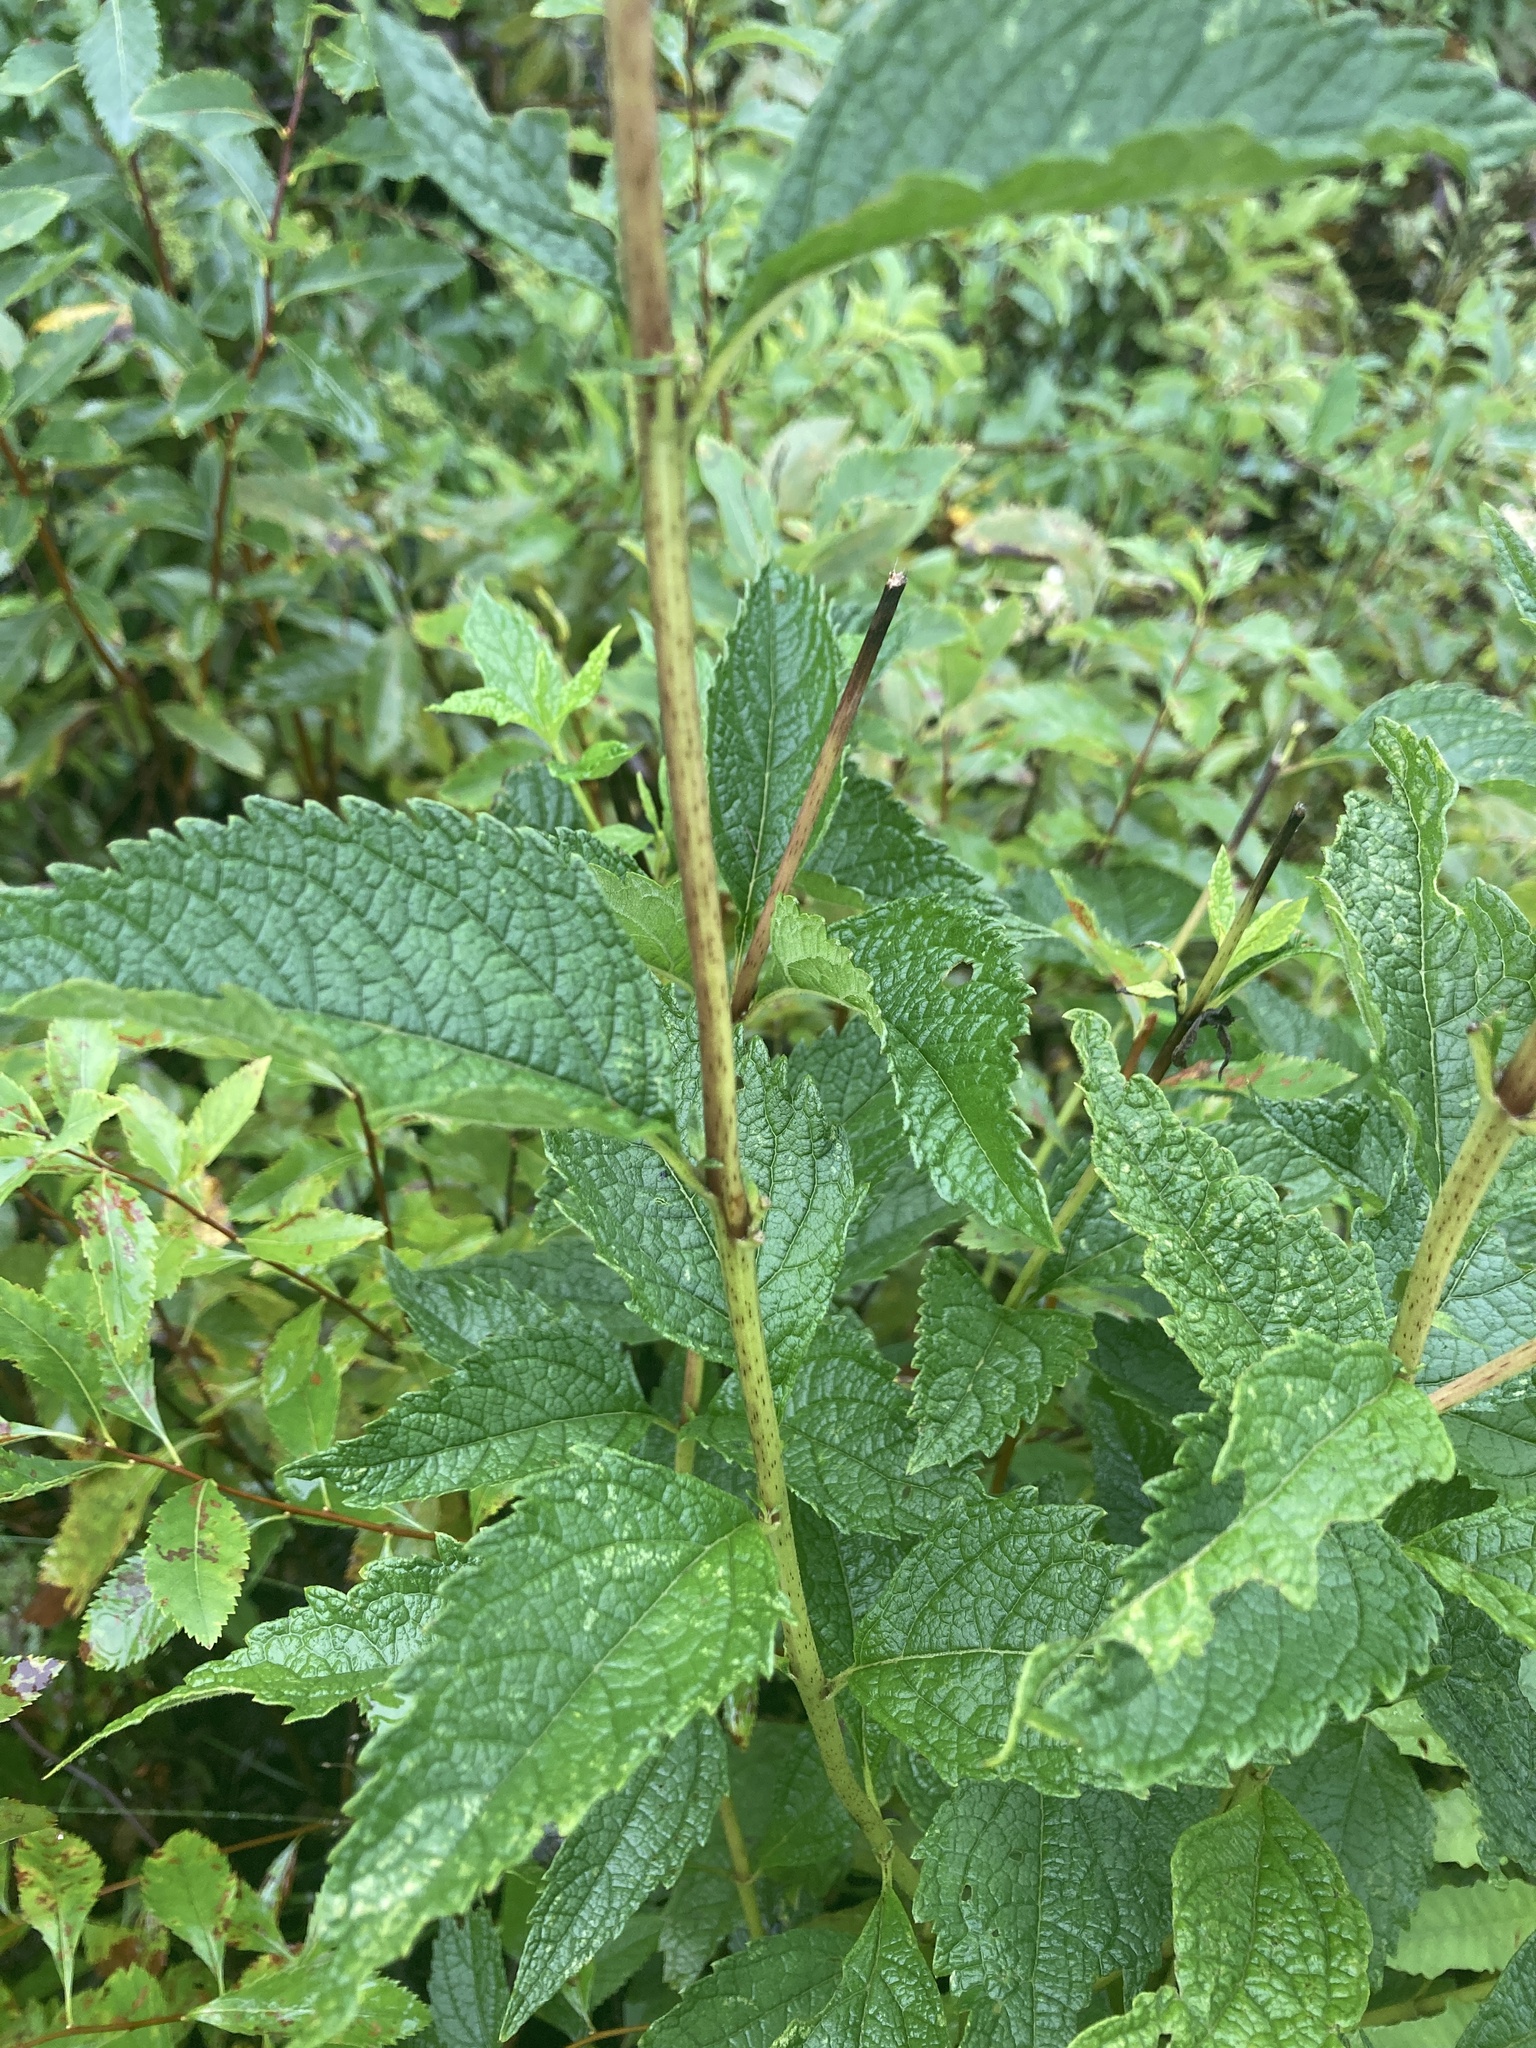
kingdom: Plantae
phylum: Tracheophyta
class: Magnoliopsida
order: Asterales
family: Asteraceae
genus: Eutrochium
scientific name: Eutrochium dubium
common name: Coastal plain joe pye weed
